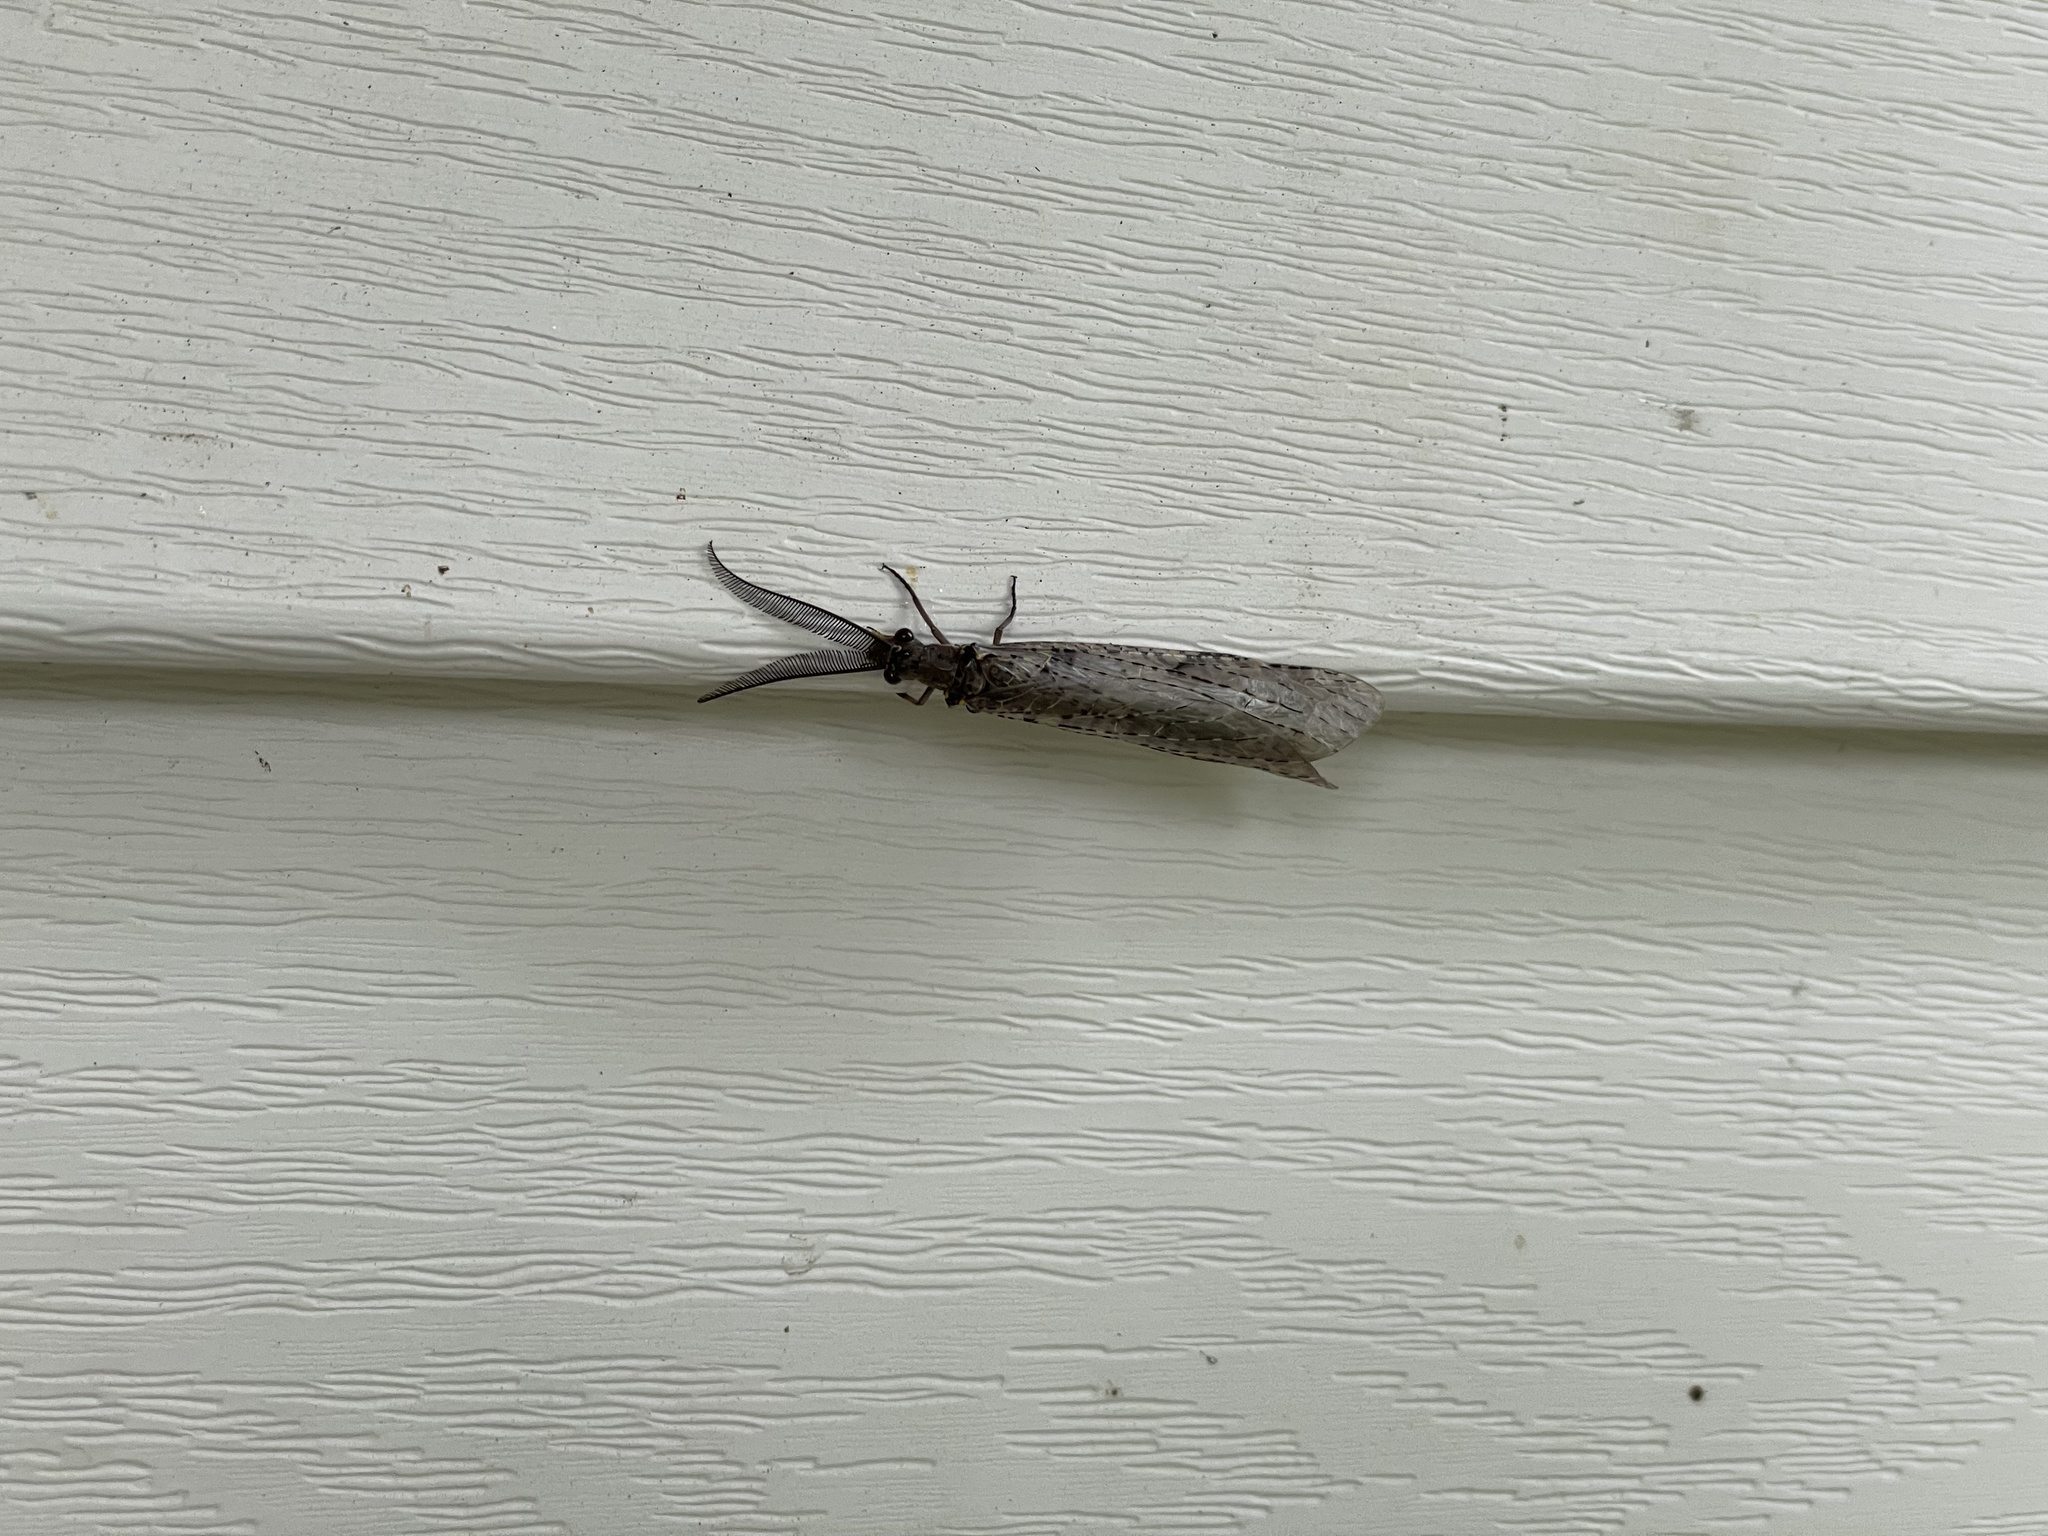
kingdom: Animalia
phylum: Arthropoda
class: Insecta
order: Megaloptera
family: Corydalidae
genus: Chauliodes
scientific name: Chauliodes rastricornis
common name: Spring fishfly
